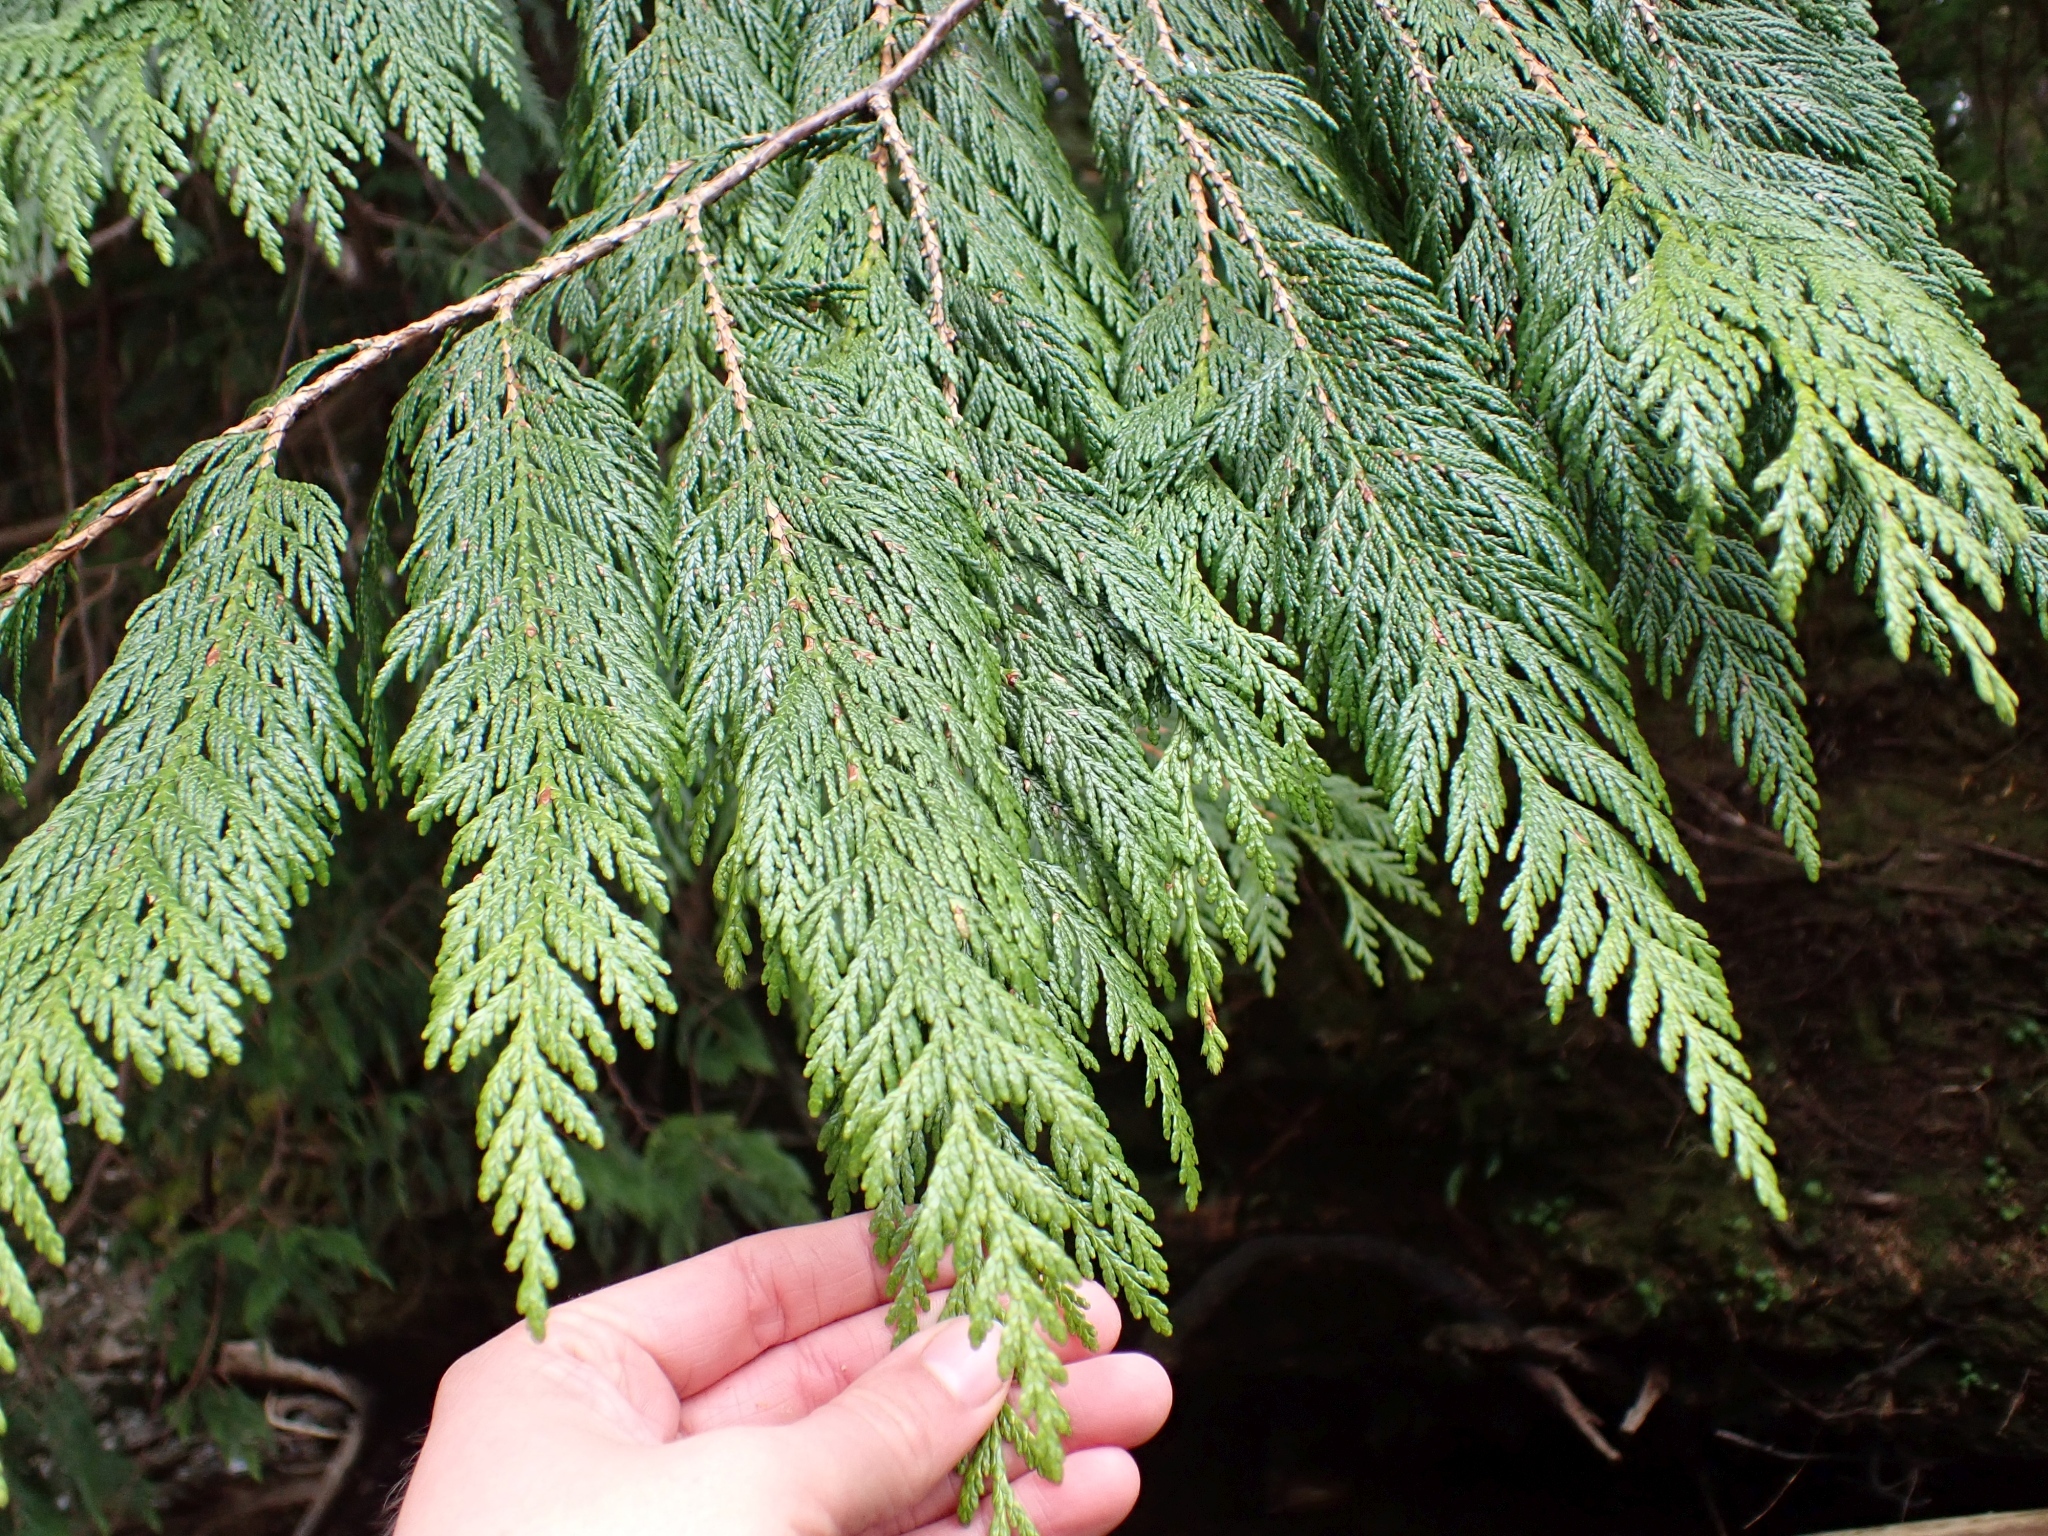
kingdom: Plantae
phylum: Tracheophyta
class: Pinopsida
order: Pinales
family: Cupressaceae
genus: Thuja
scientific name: Thuja plicata
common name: Western red-cedar
